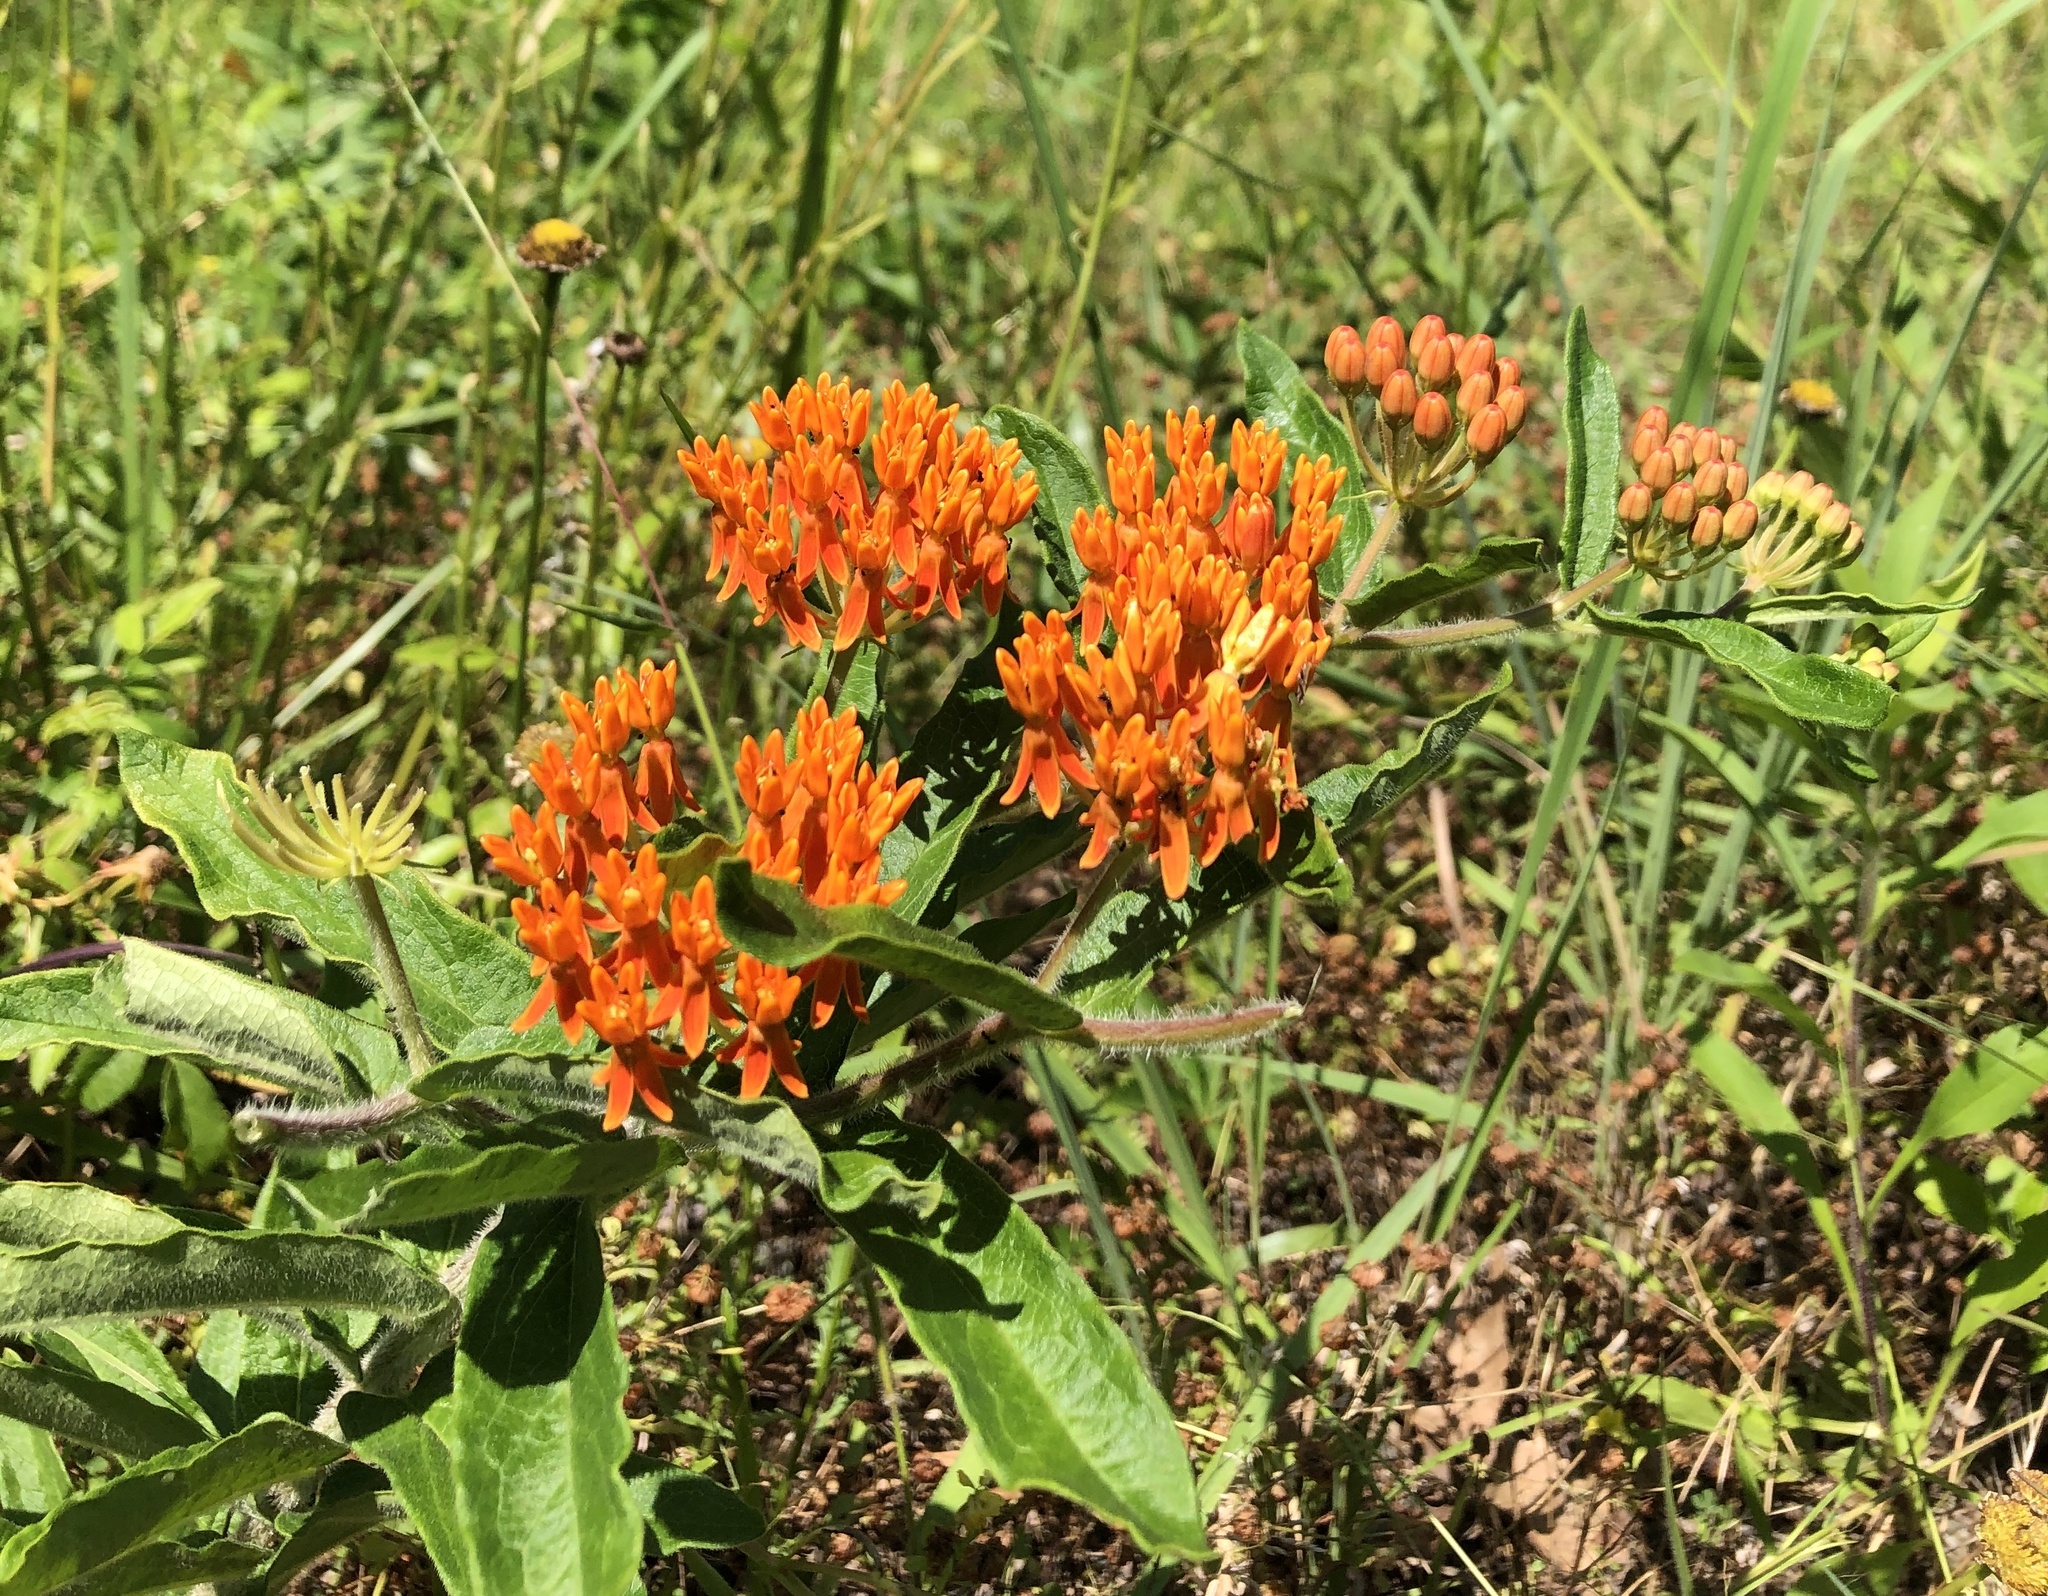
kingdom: Plantae
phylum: Tracheophyta
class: Magnoliopsida
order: Gentianales
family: Apocynaceae
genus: Asclepias
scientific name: Asclepias tuberosa
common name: Butterfly milkweed
